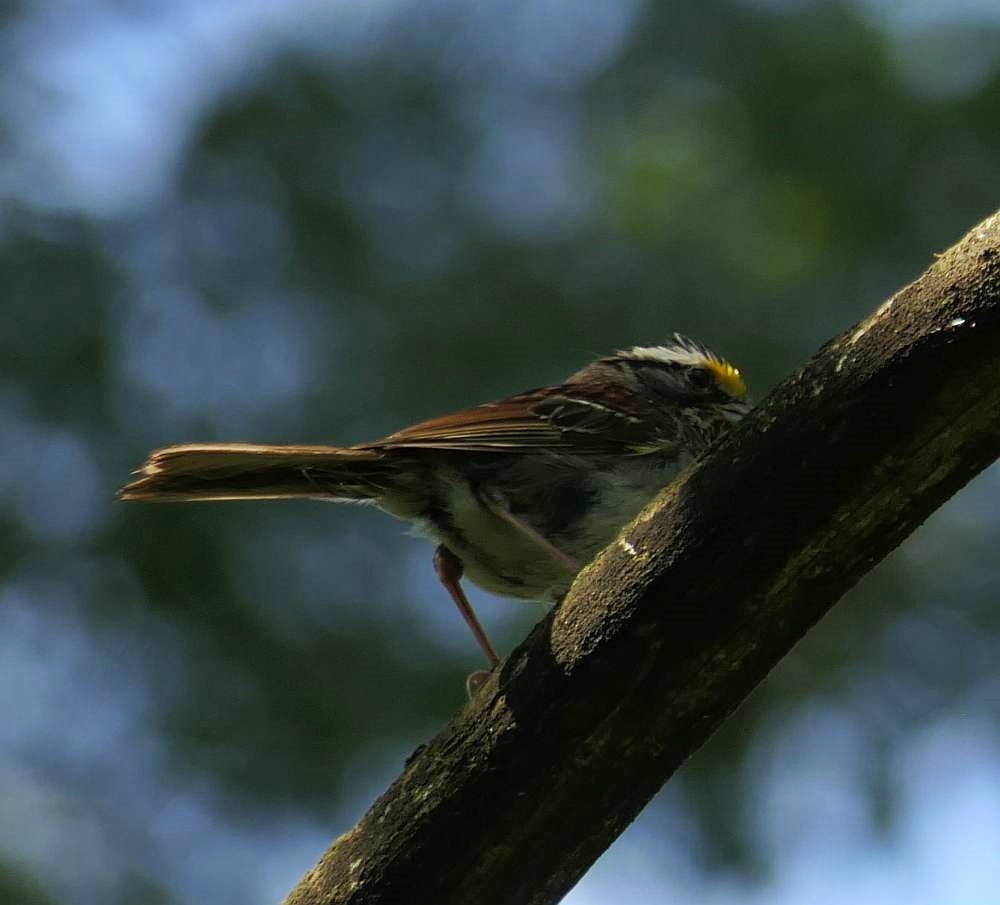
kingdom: Animalia
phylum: Chordata
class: Aves
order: Passeriformes
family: Passerellidae
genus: Zonotrichia
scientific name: Zonotrichia albicollis
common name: White-throated sparrow
